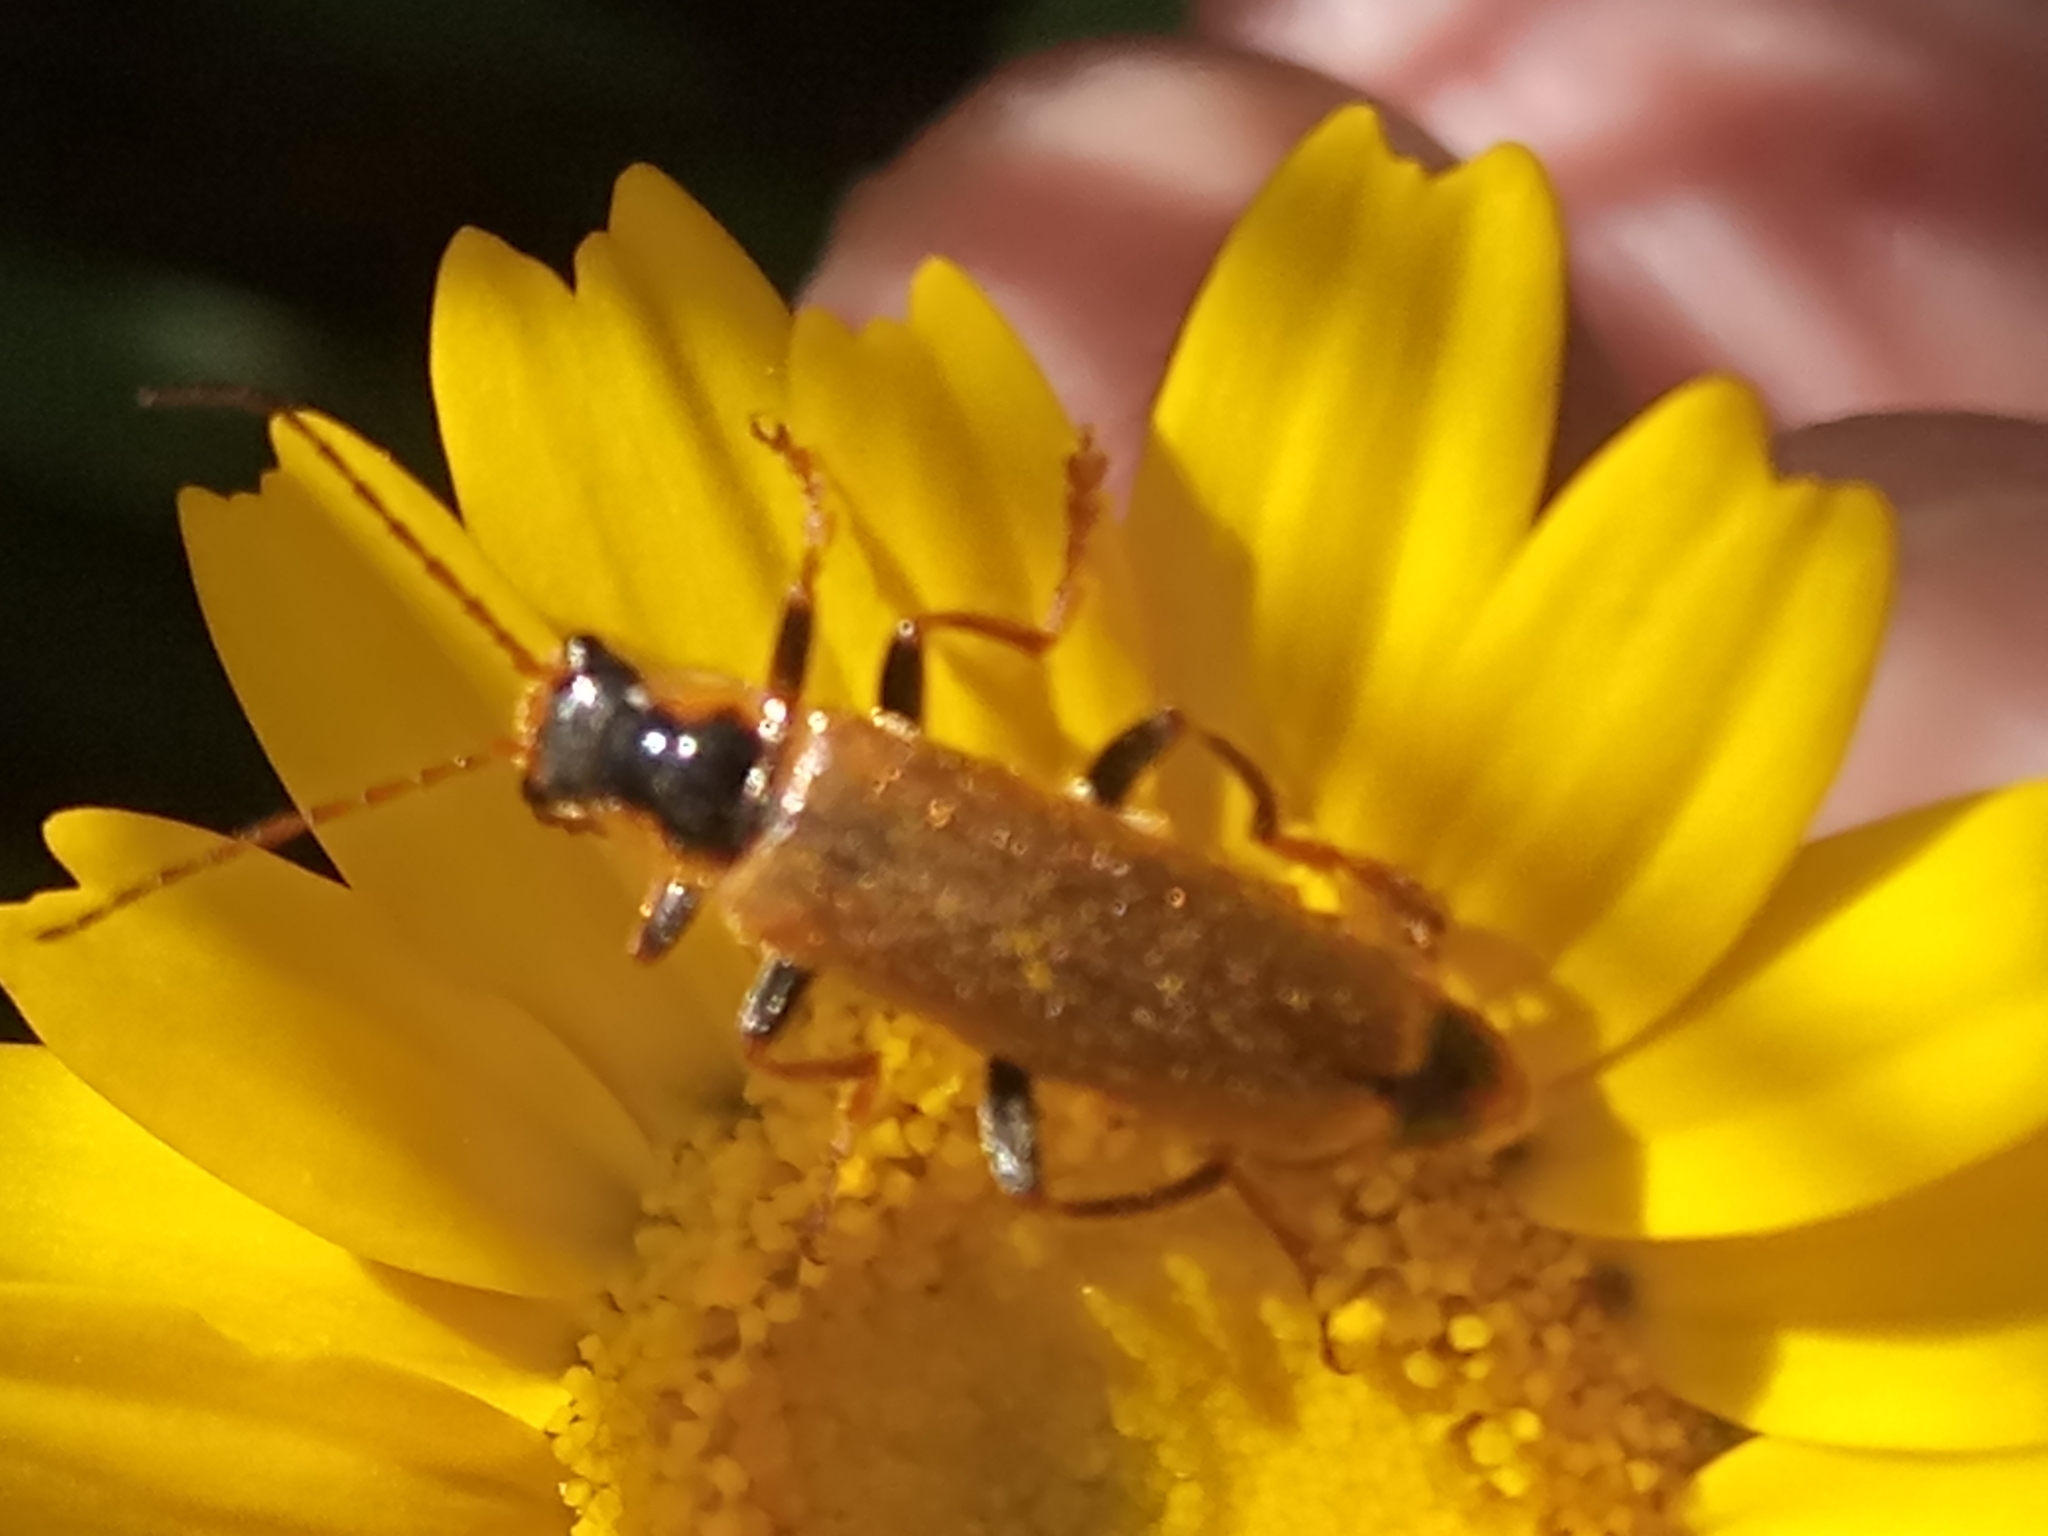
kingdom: Animalia
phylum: Arthropoda
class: Insecta
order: Coleoptera
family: Cantharidae
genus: Rhagonycha
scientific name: Rhagonycha
